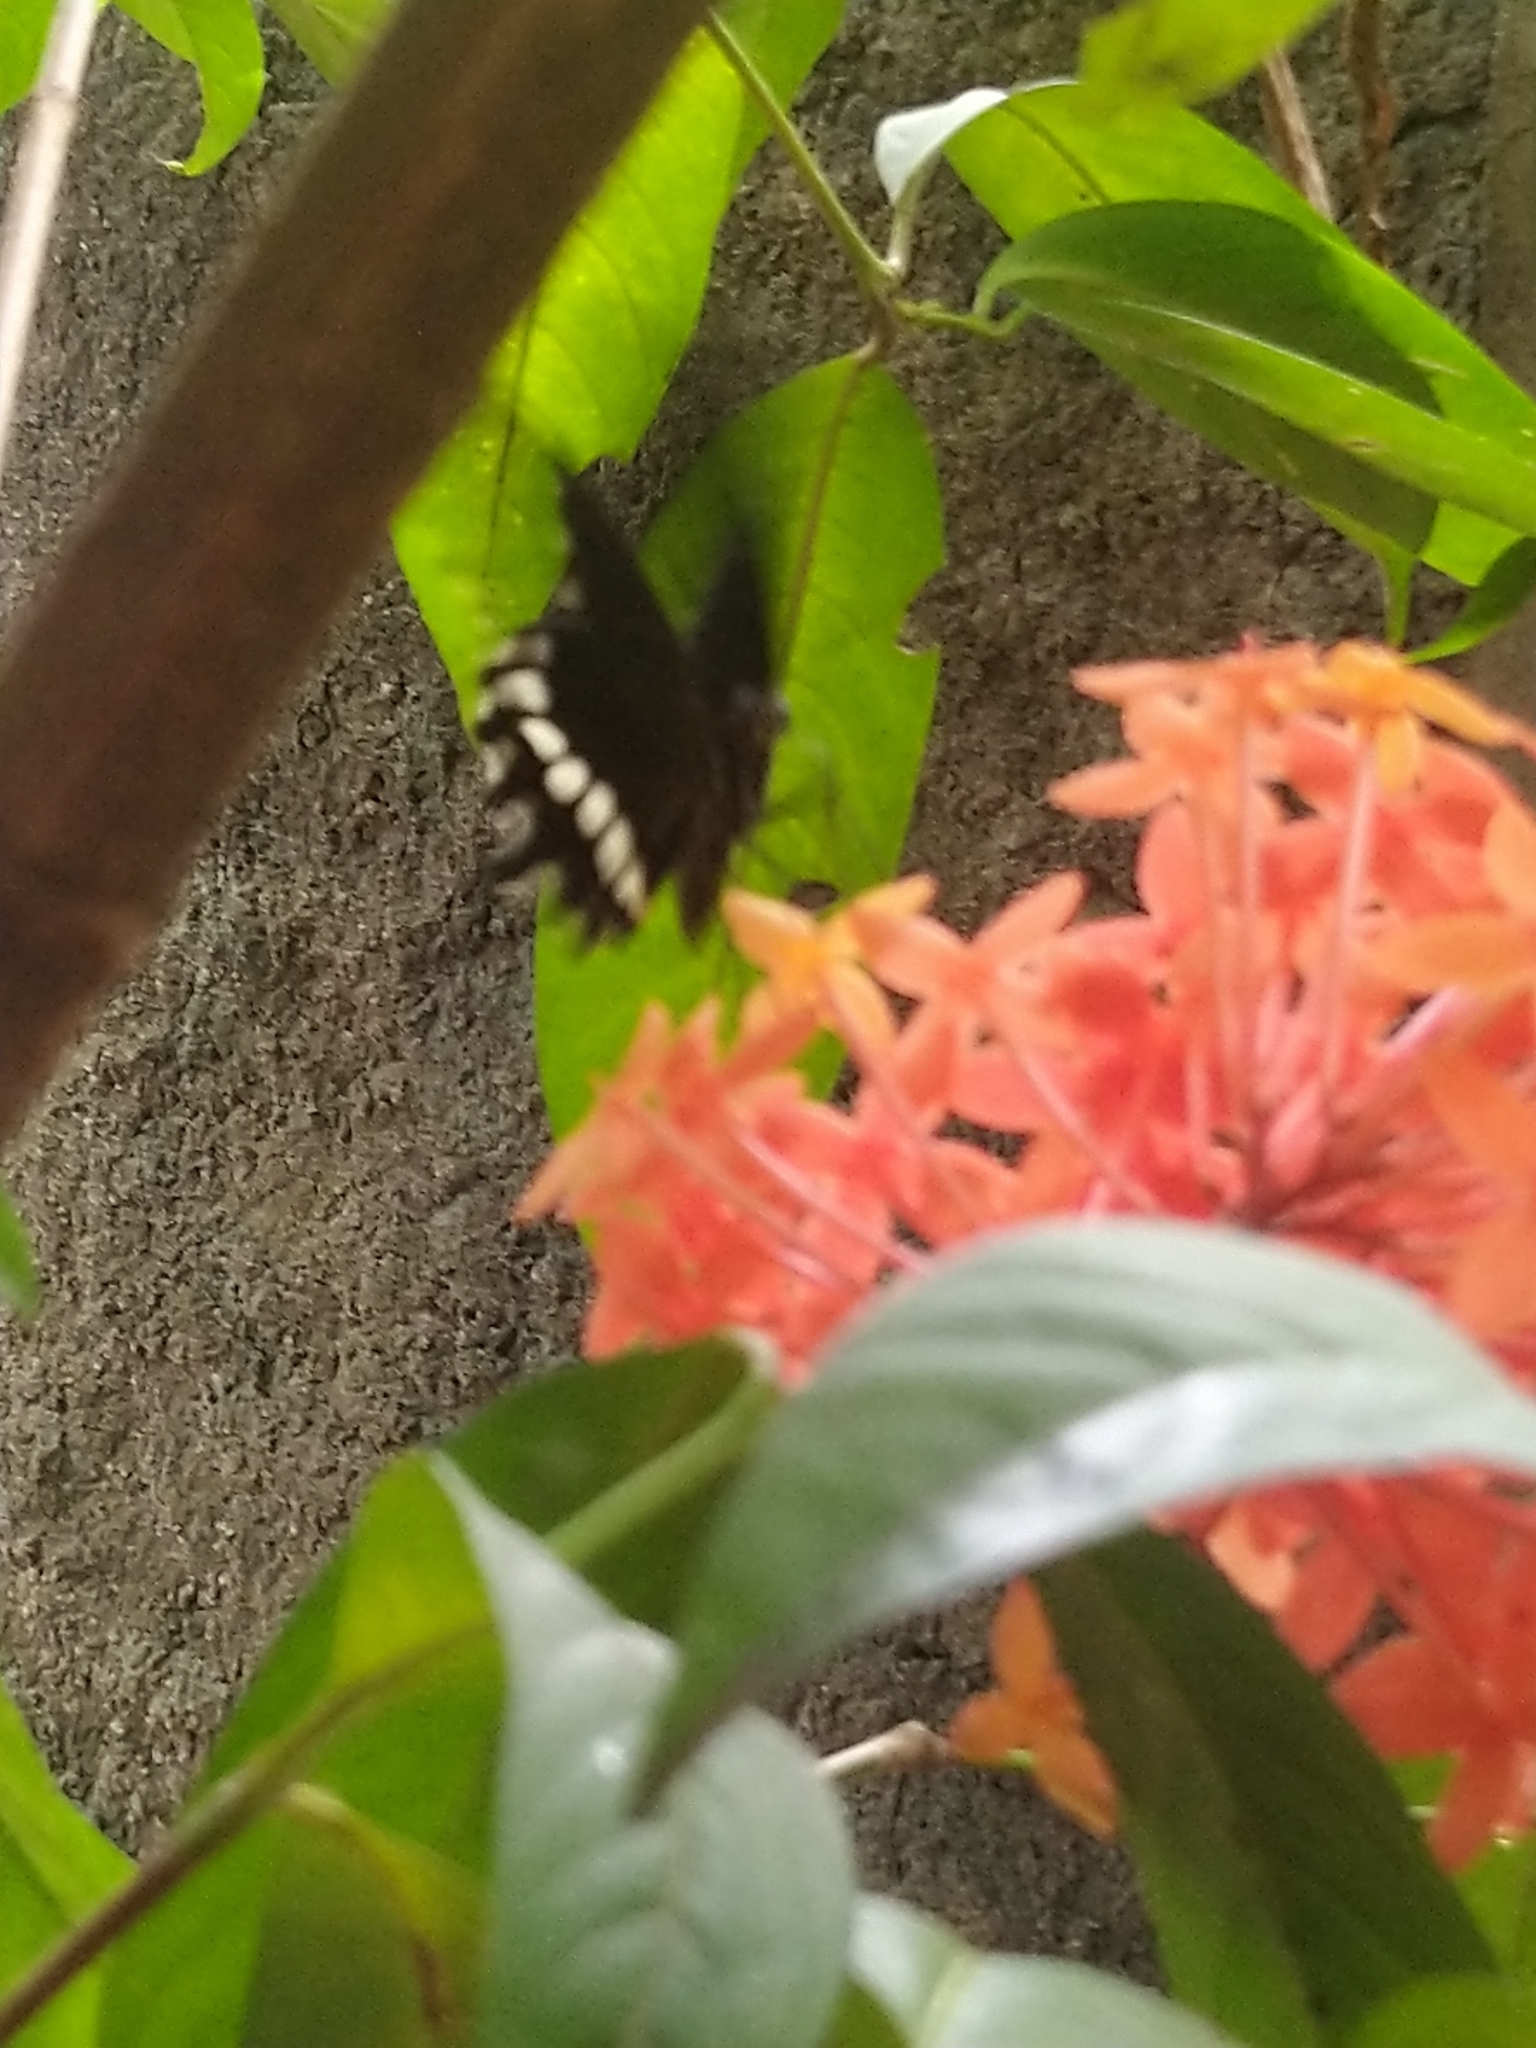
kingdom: Animalia
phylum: Arthropoda
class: Insecta
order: Lepidoptera
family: Papilionidae
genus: Papilio
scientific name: Papilio polytes
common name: Common mormon
